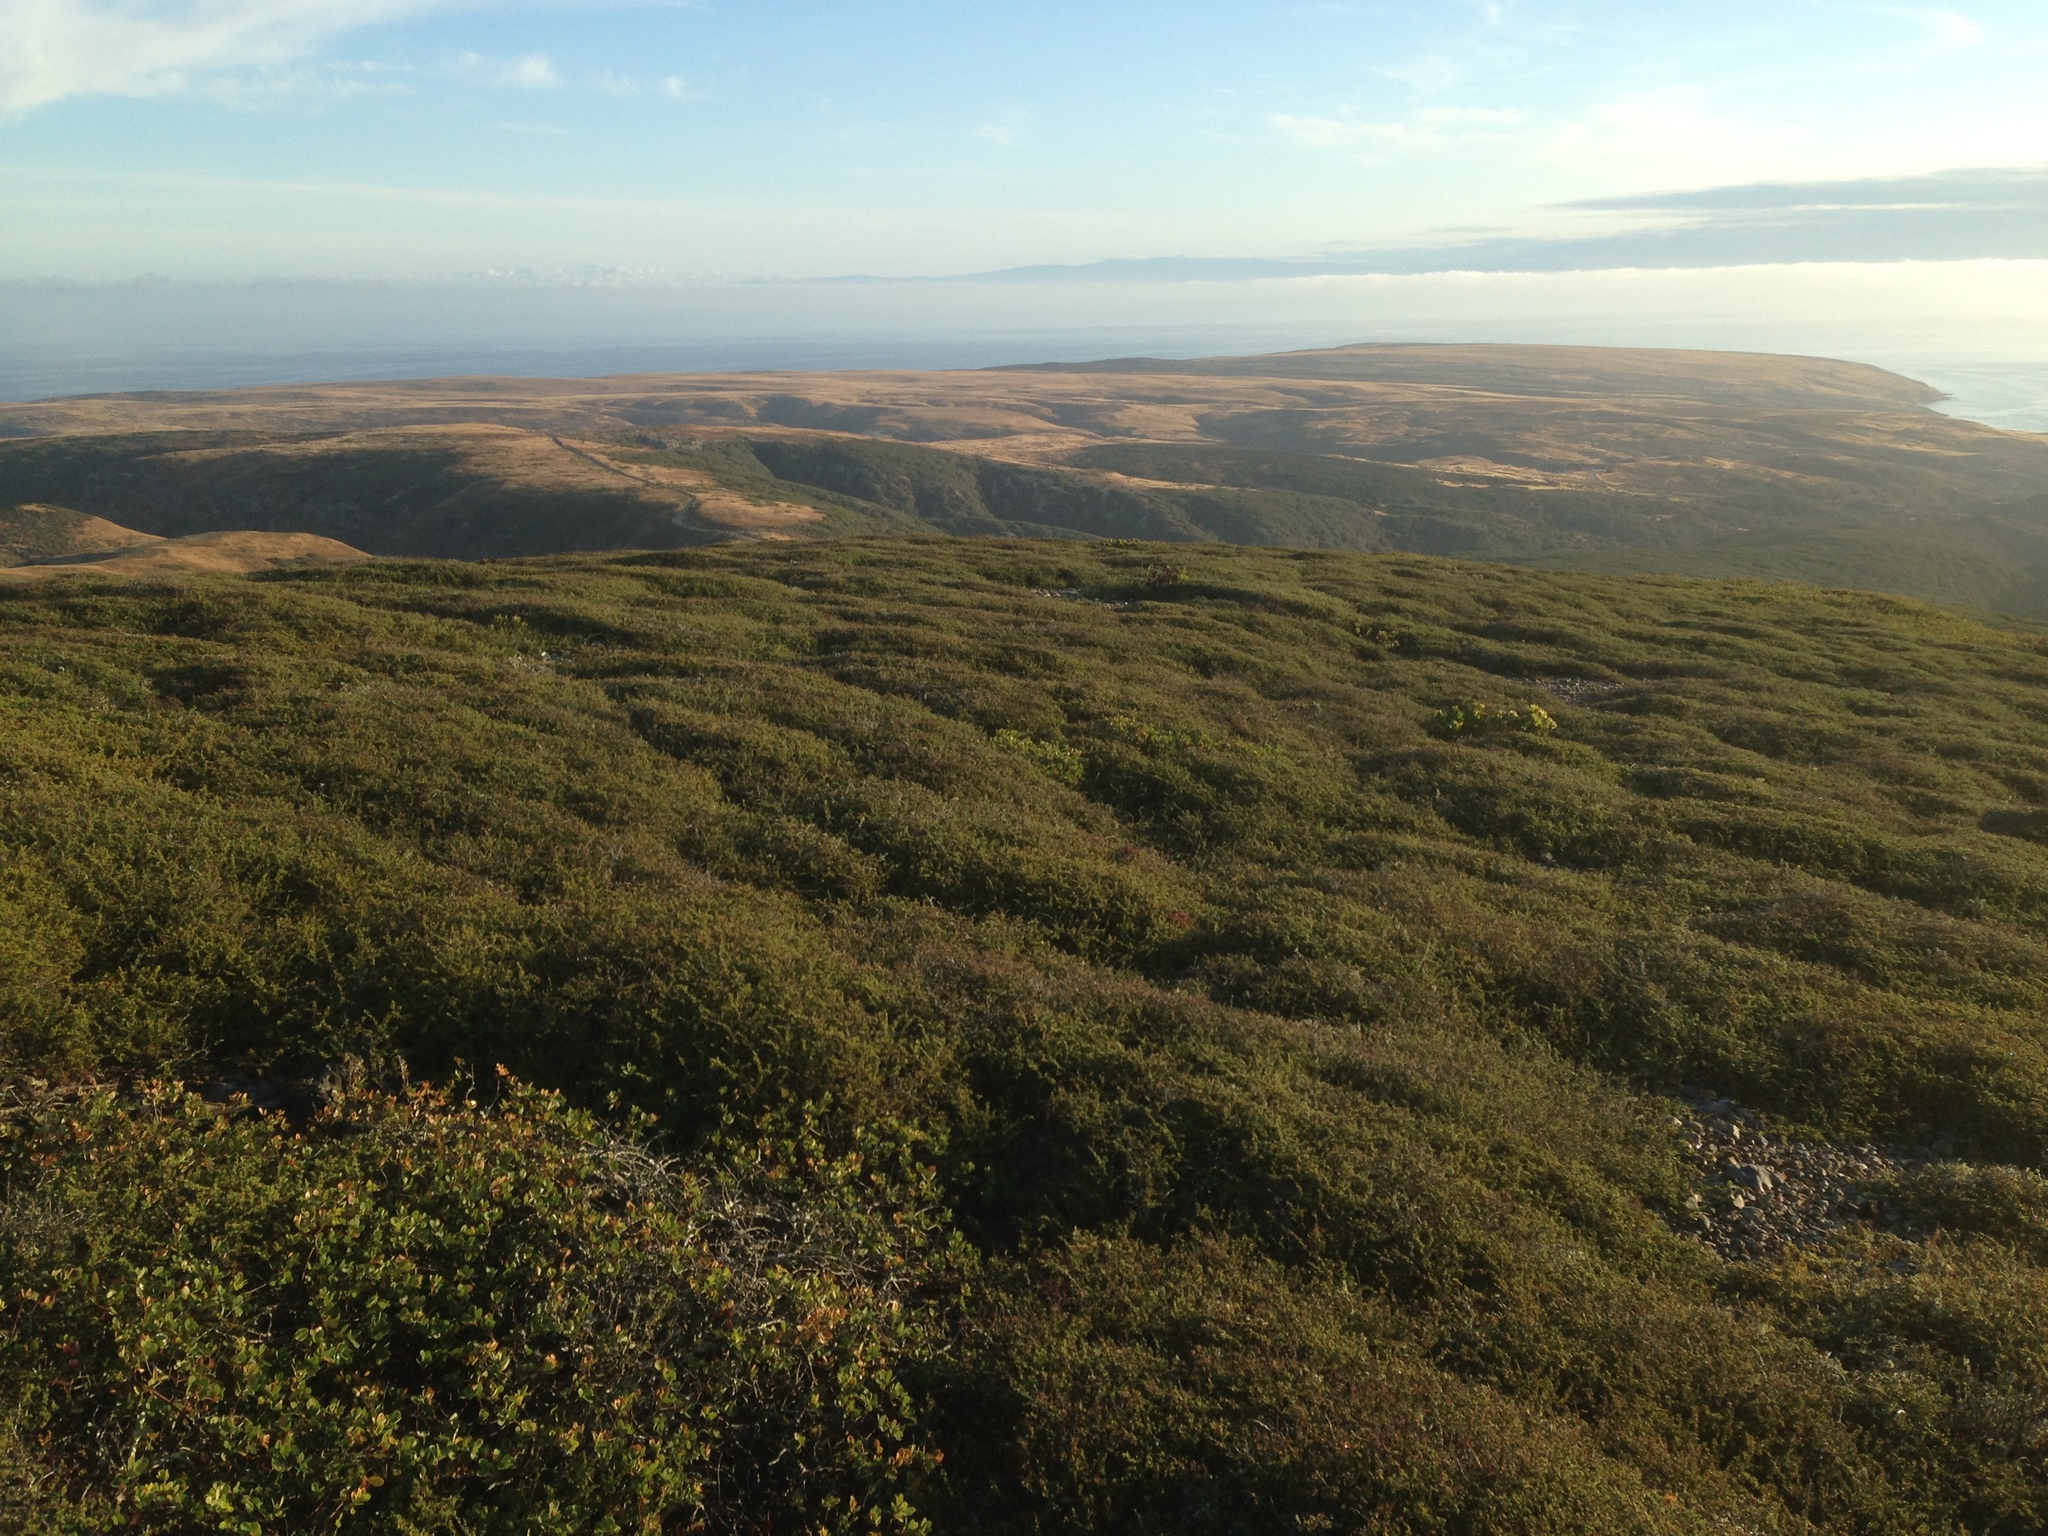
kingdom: Plantae
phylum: Tracheophyta
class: Magnoliopsida
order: Rosales
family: Rosaceae
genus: Adenostoma
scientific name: Adenostoma fasciculatum
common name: Chamise
